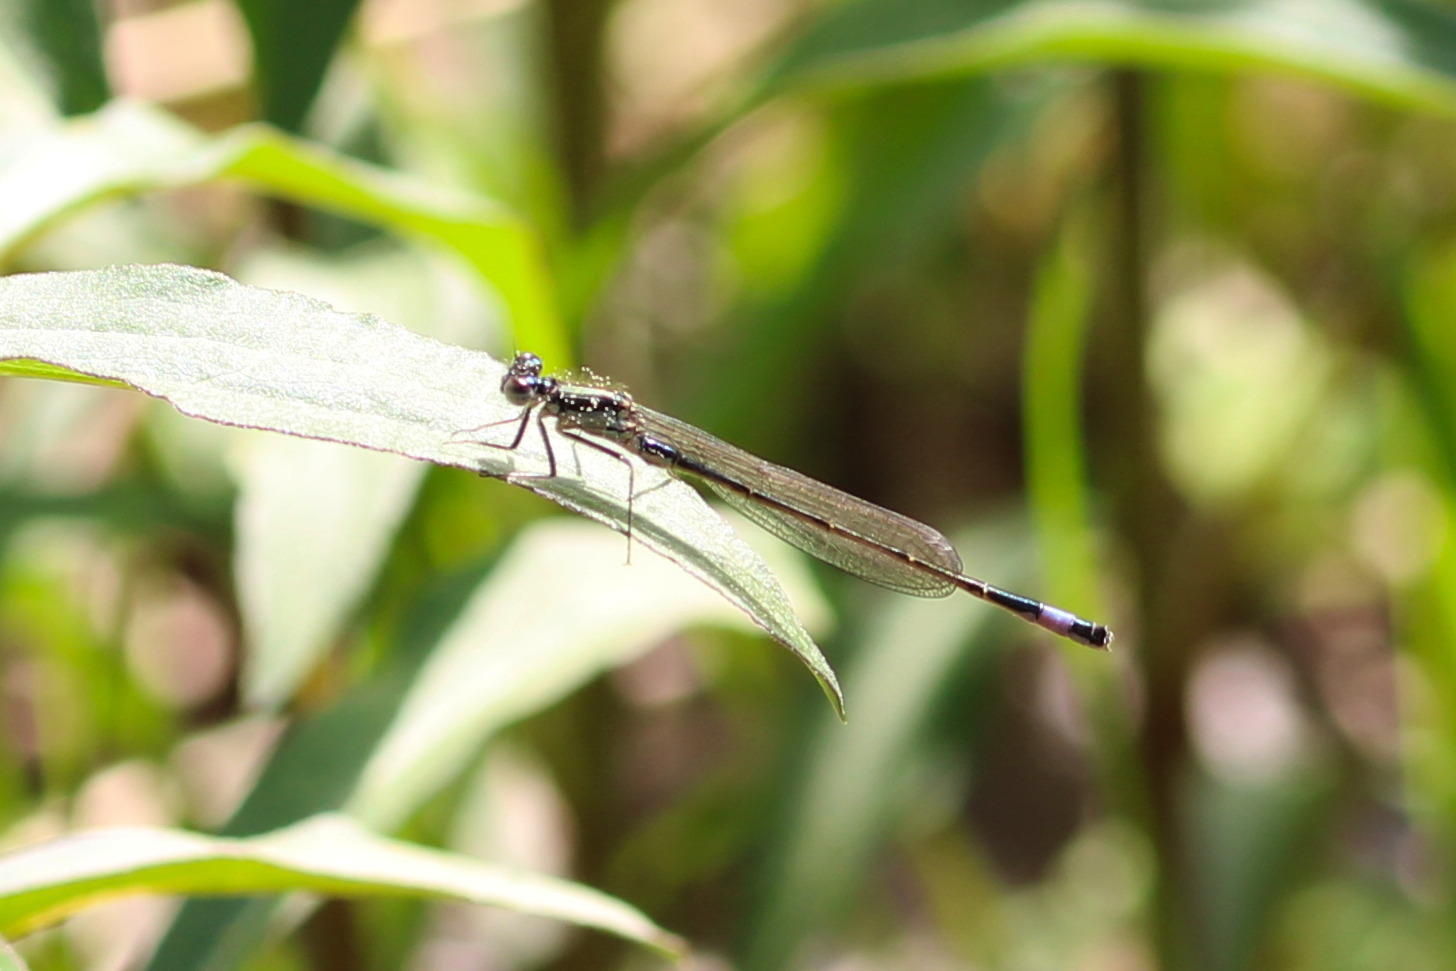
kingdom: Animalia
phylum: Arthropoda
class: Insecta
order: Odonata
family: Coenagrionidae
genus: Ischnura
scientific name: Ischnura elegans
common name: Blue-tailed damselfly
